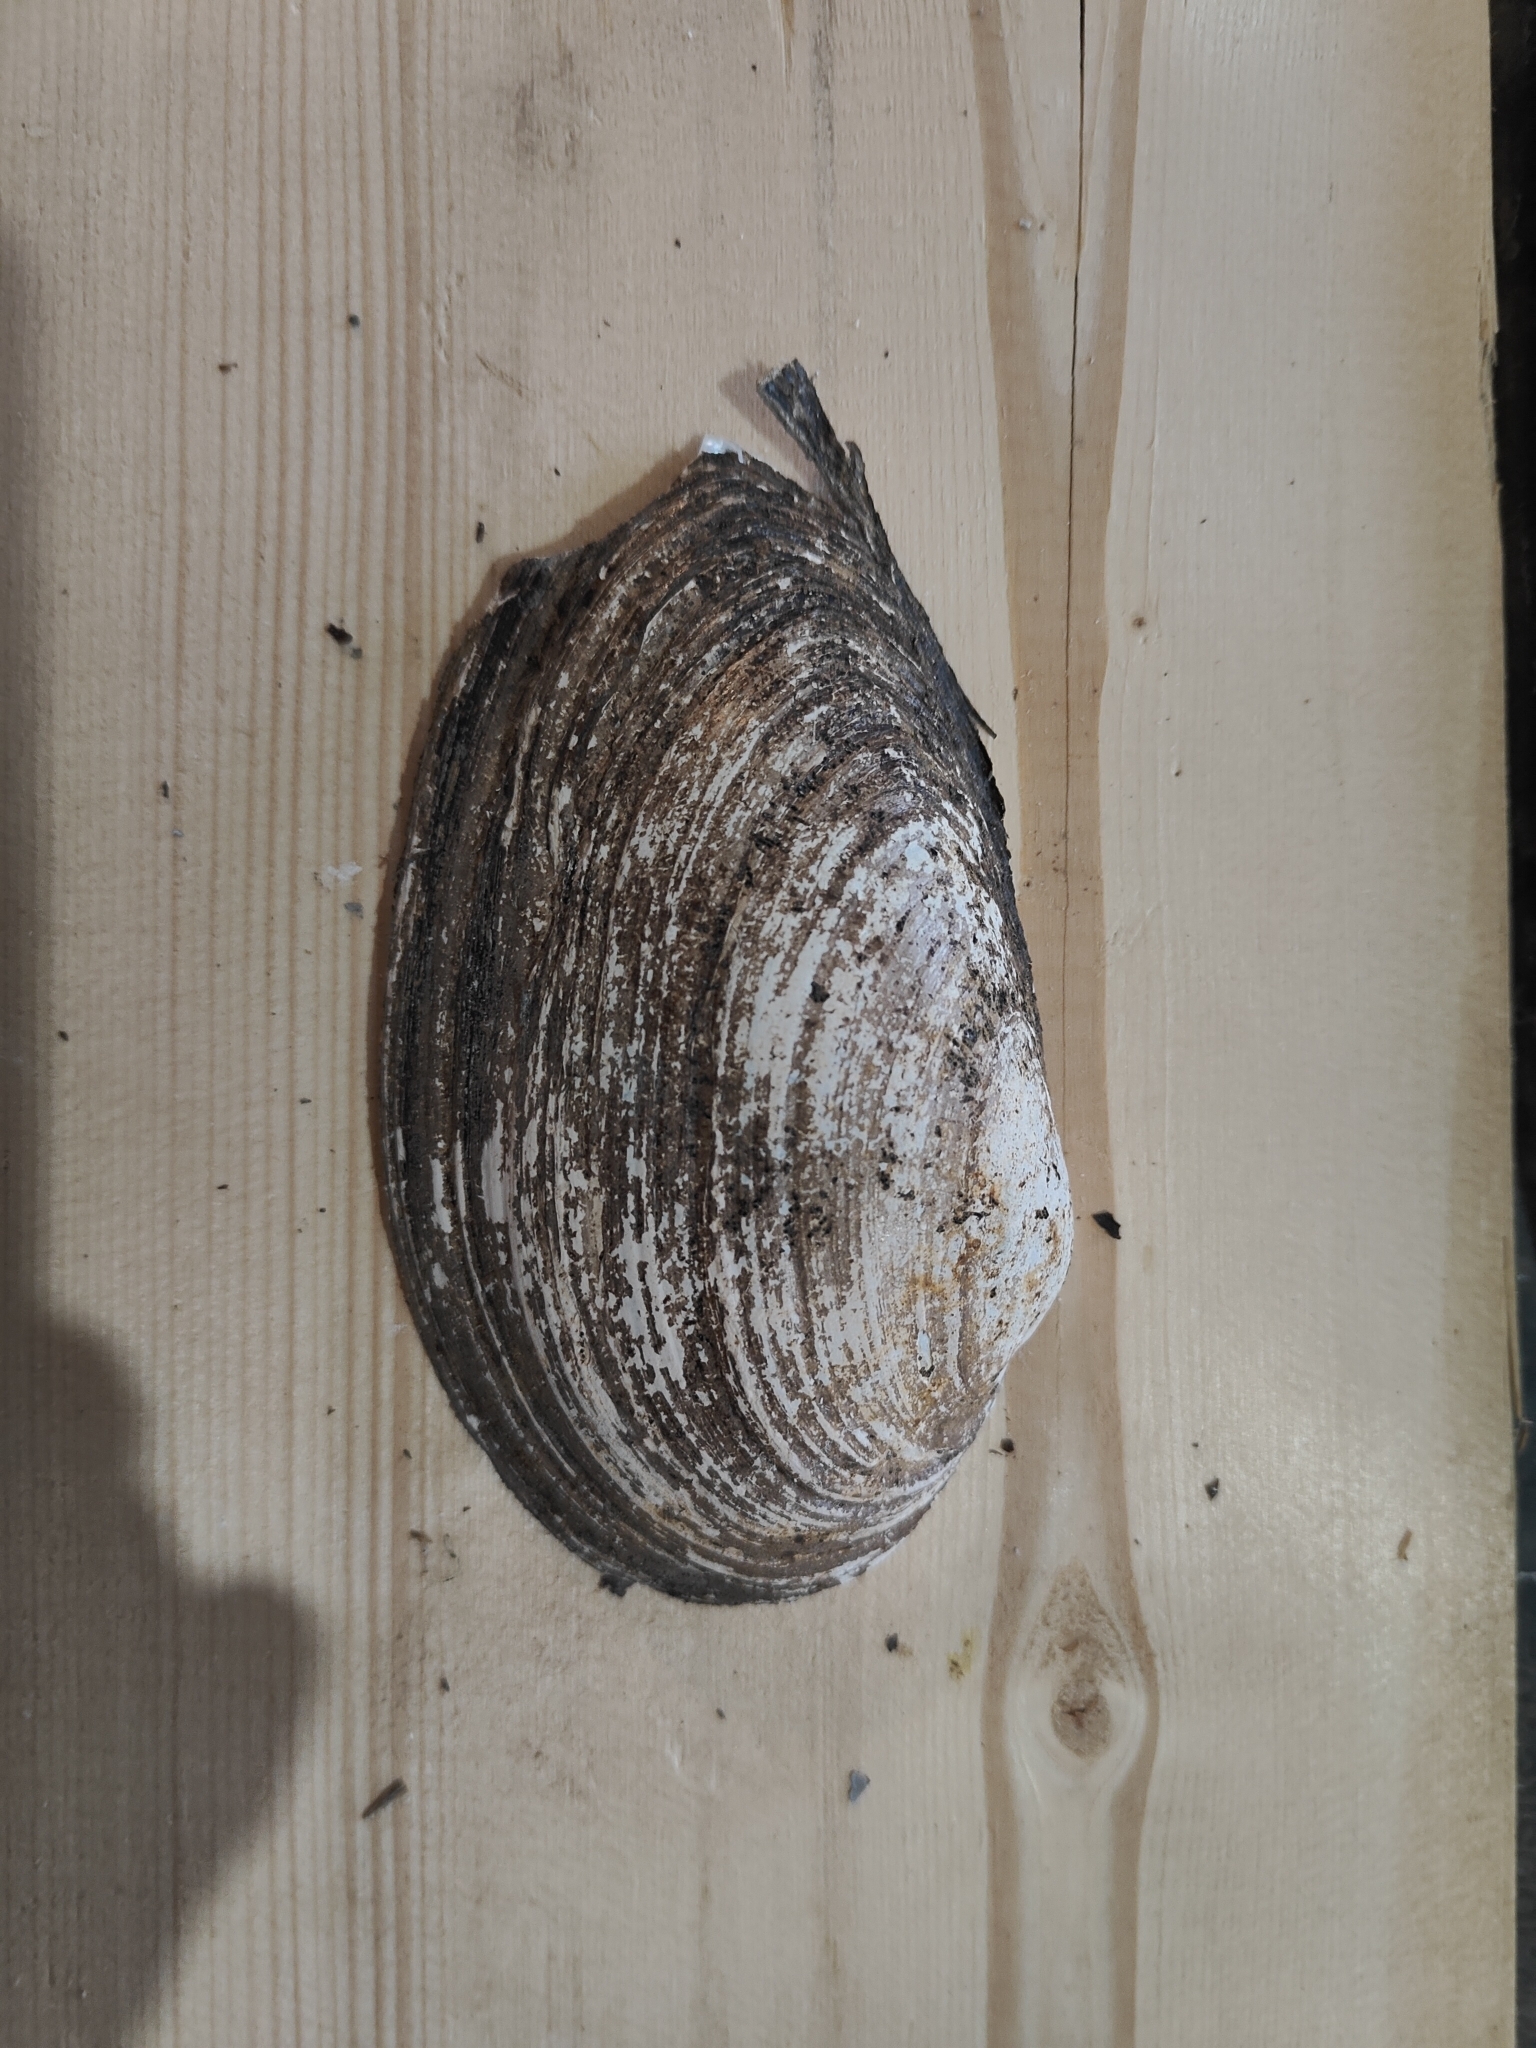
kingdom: Animalia
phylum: Mollusca
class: Bivalvia
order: Unionida
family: Unionidae
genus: Pyganodon
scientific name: Pyganodon grandis
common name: Giant floater
